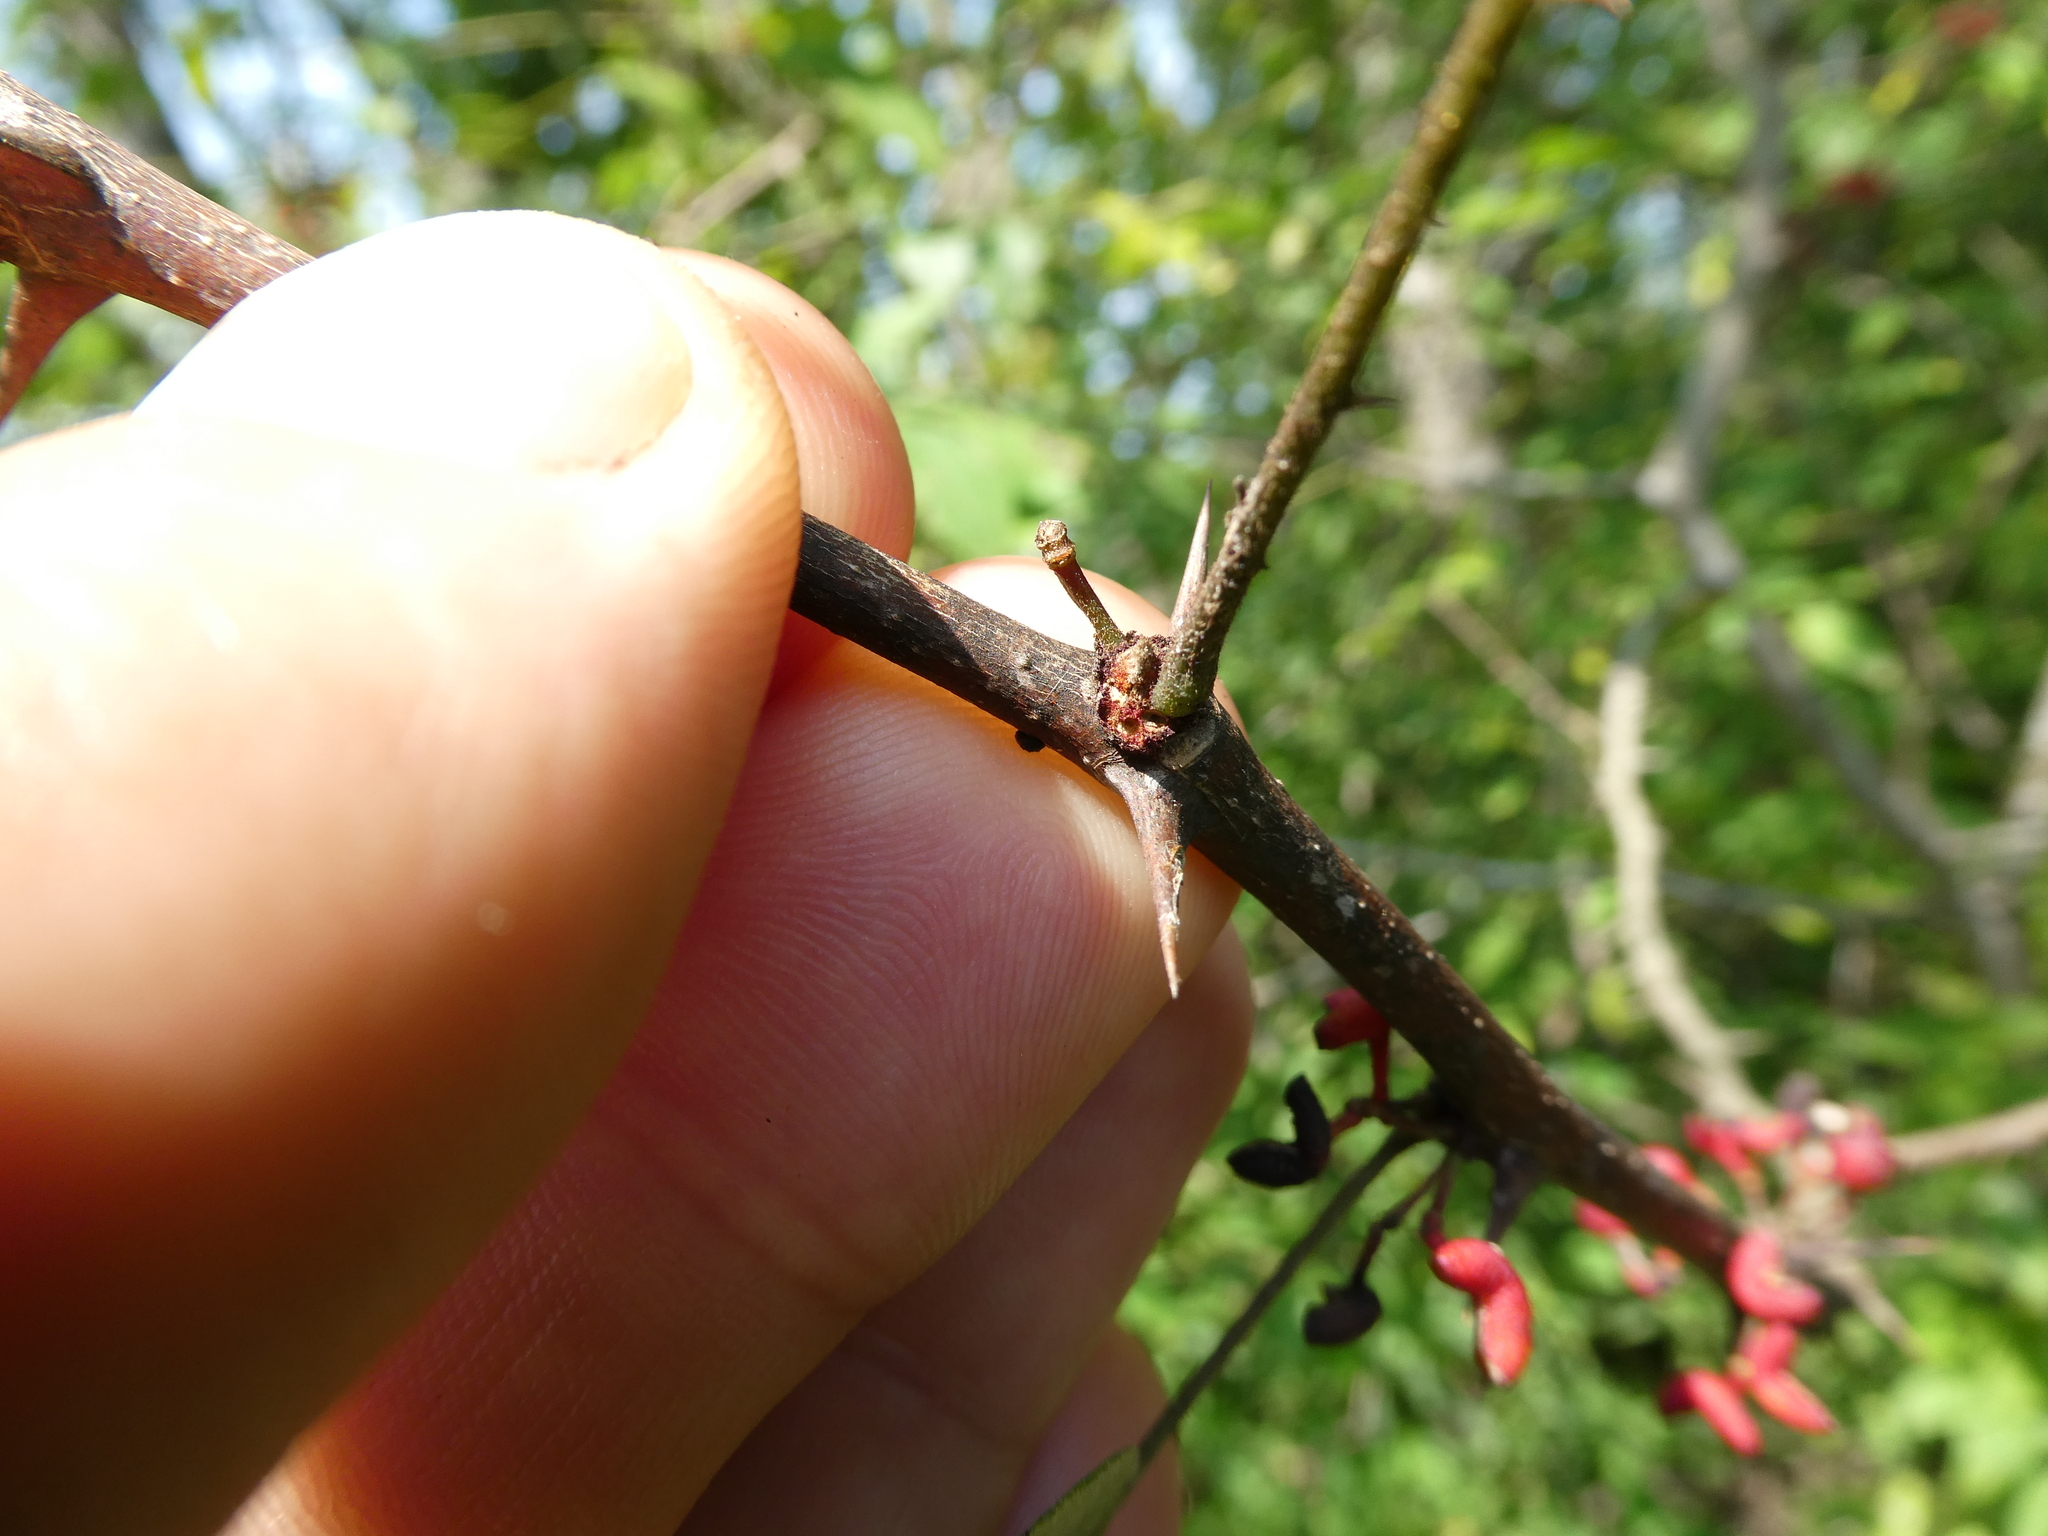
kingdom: Plantae
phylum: Tracheophyta
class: Magnoliopsida
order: Sapindales
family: Rutaceae
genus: Zanthoxylum
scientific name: Zanthoxylum americanum
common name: Northern prickly-ash
